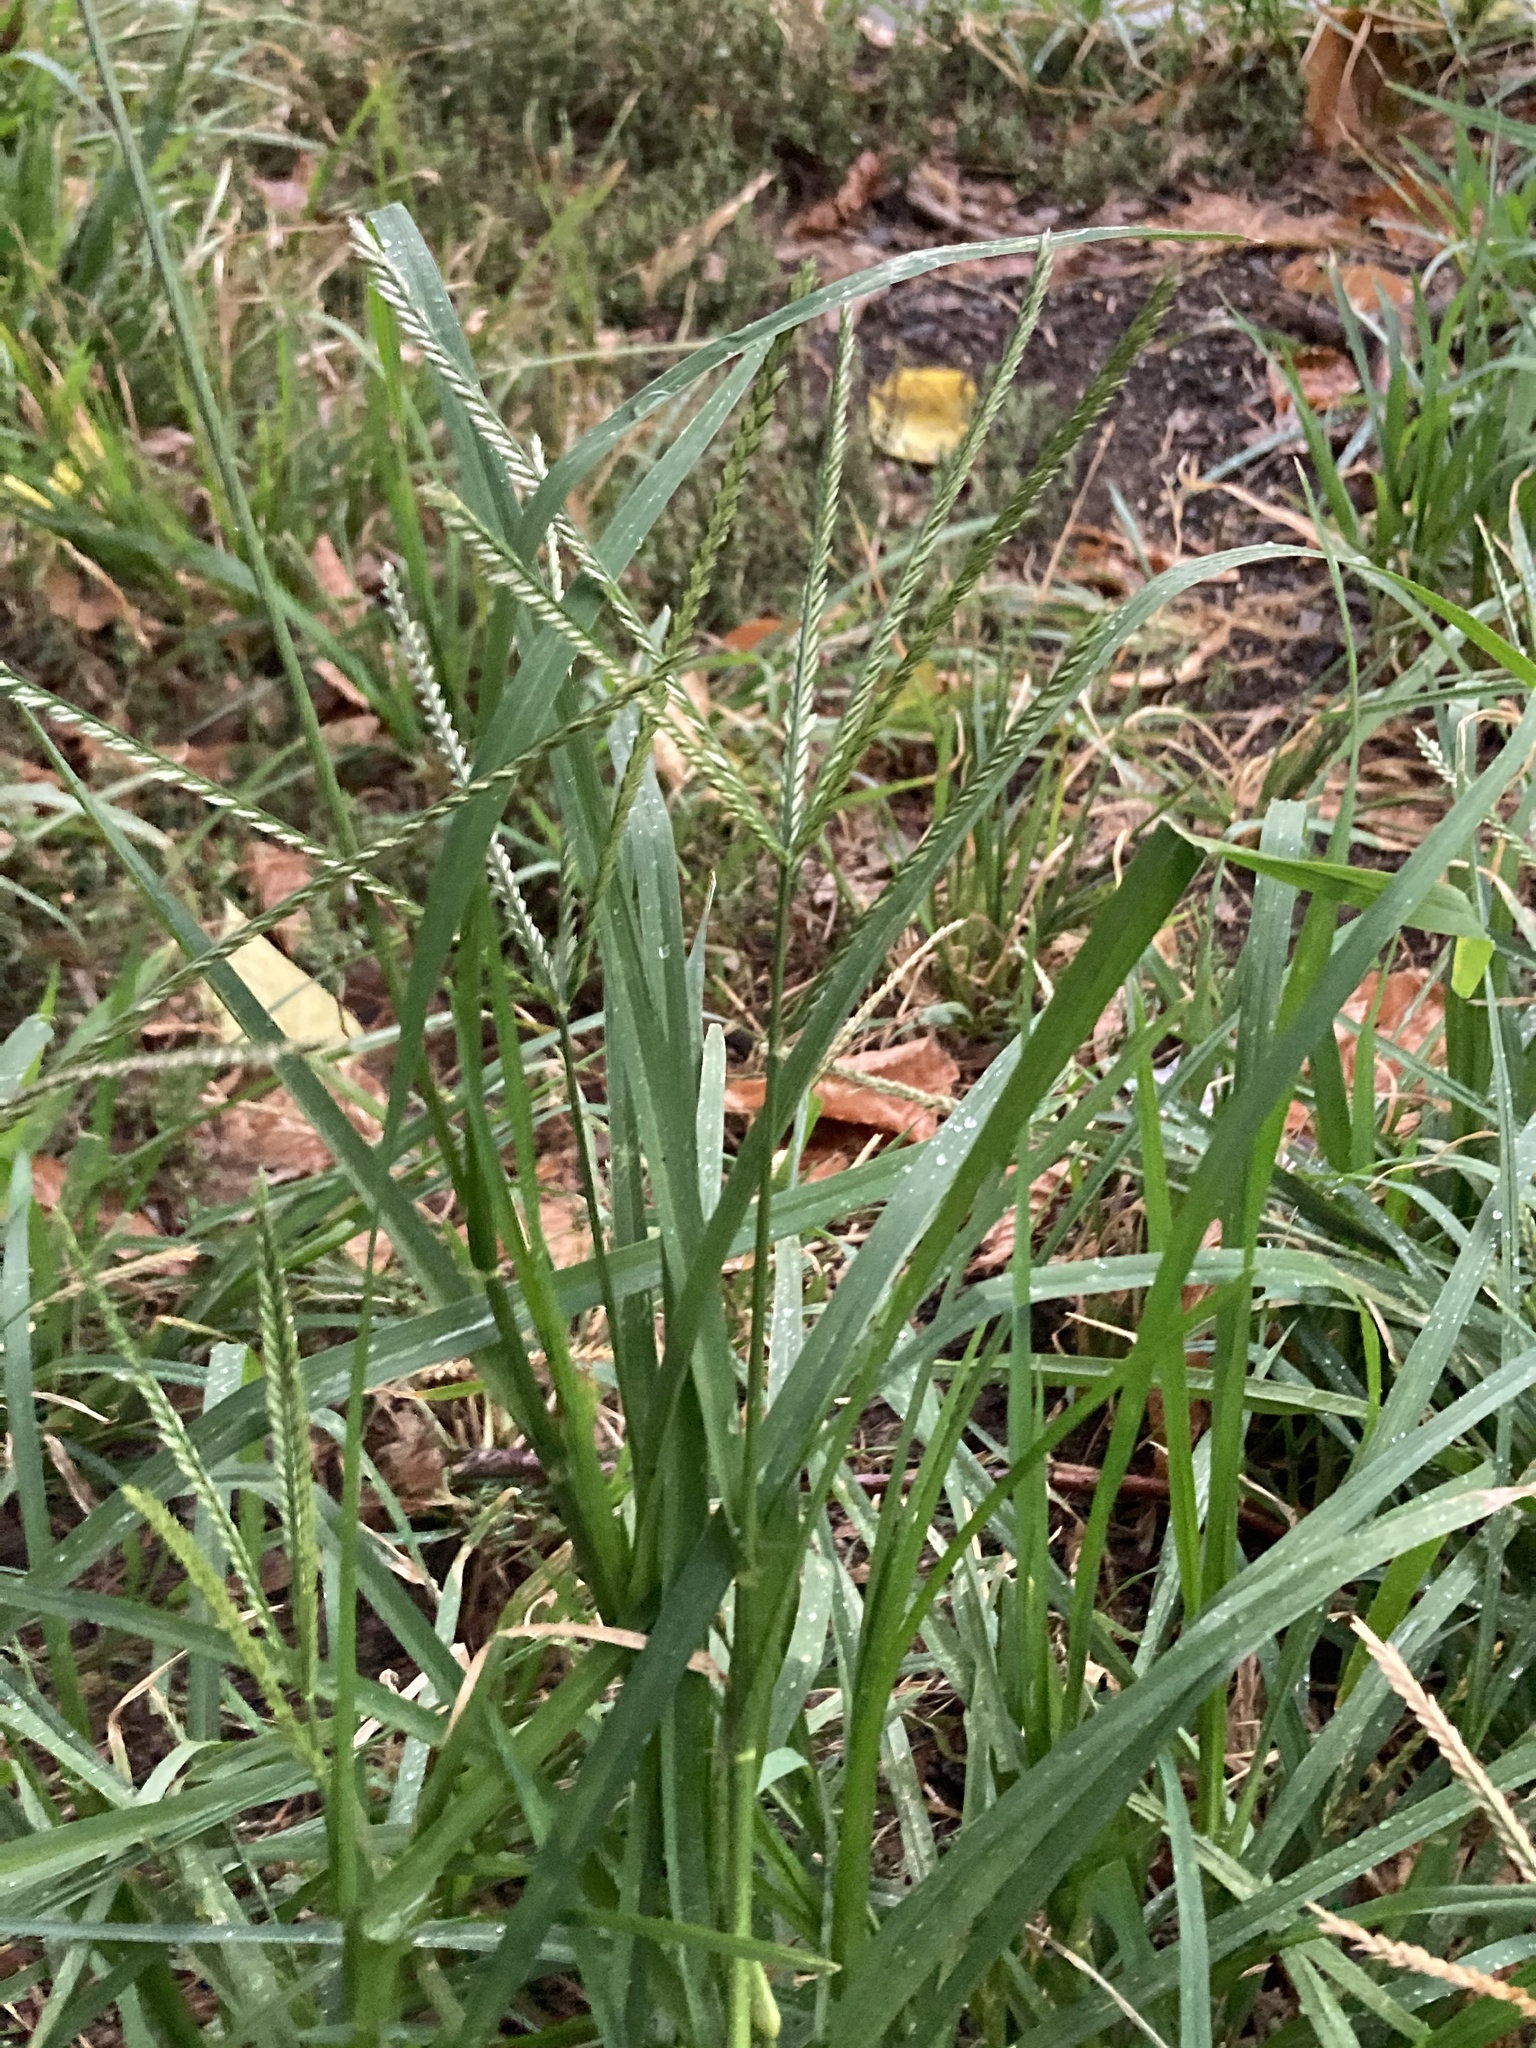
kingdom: Plantae
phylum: Tracheophyta
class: Liliopsida
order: Poales
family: Poaceae
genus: Eleusine
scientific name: Eleusine indica
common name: Yard-grass
